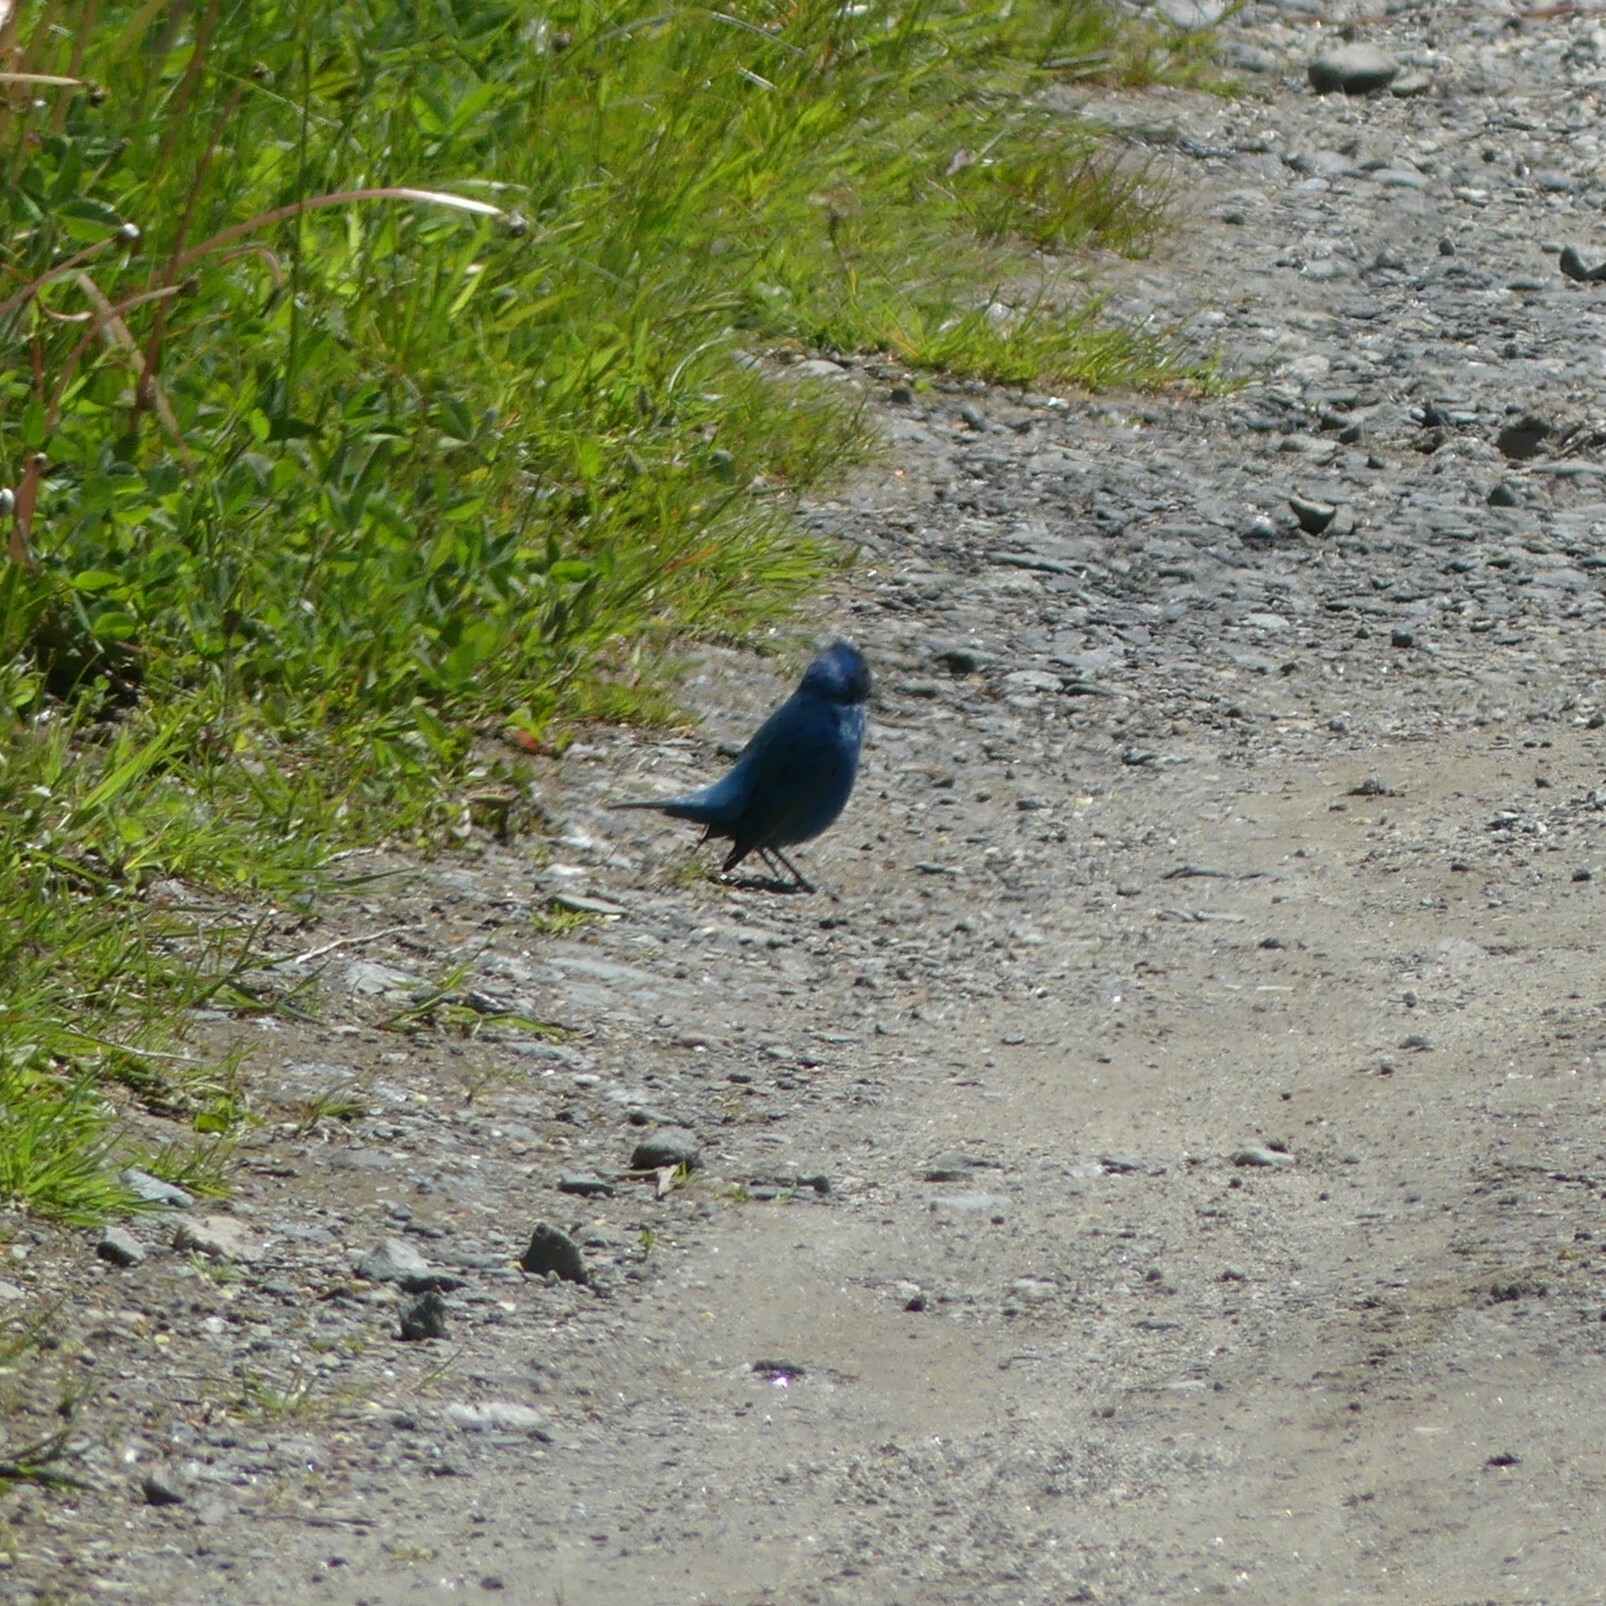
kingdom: Animalia
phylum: Chordata
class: Aves
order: Passeriformes
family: Cardinalidae
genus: Passerina
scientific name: Passerina cyanea
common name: Indigo bunting
